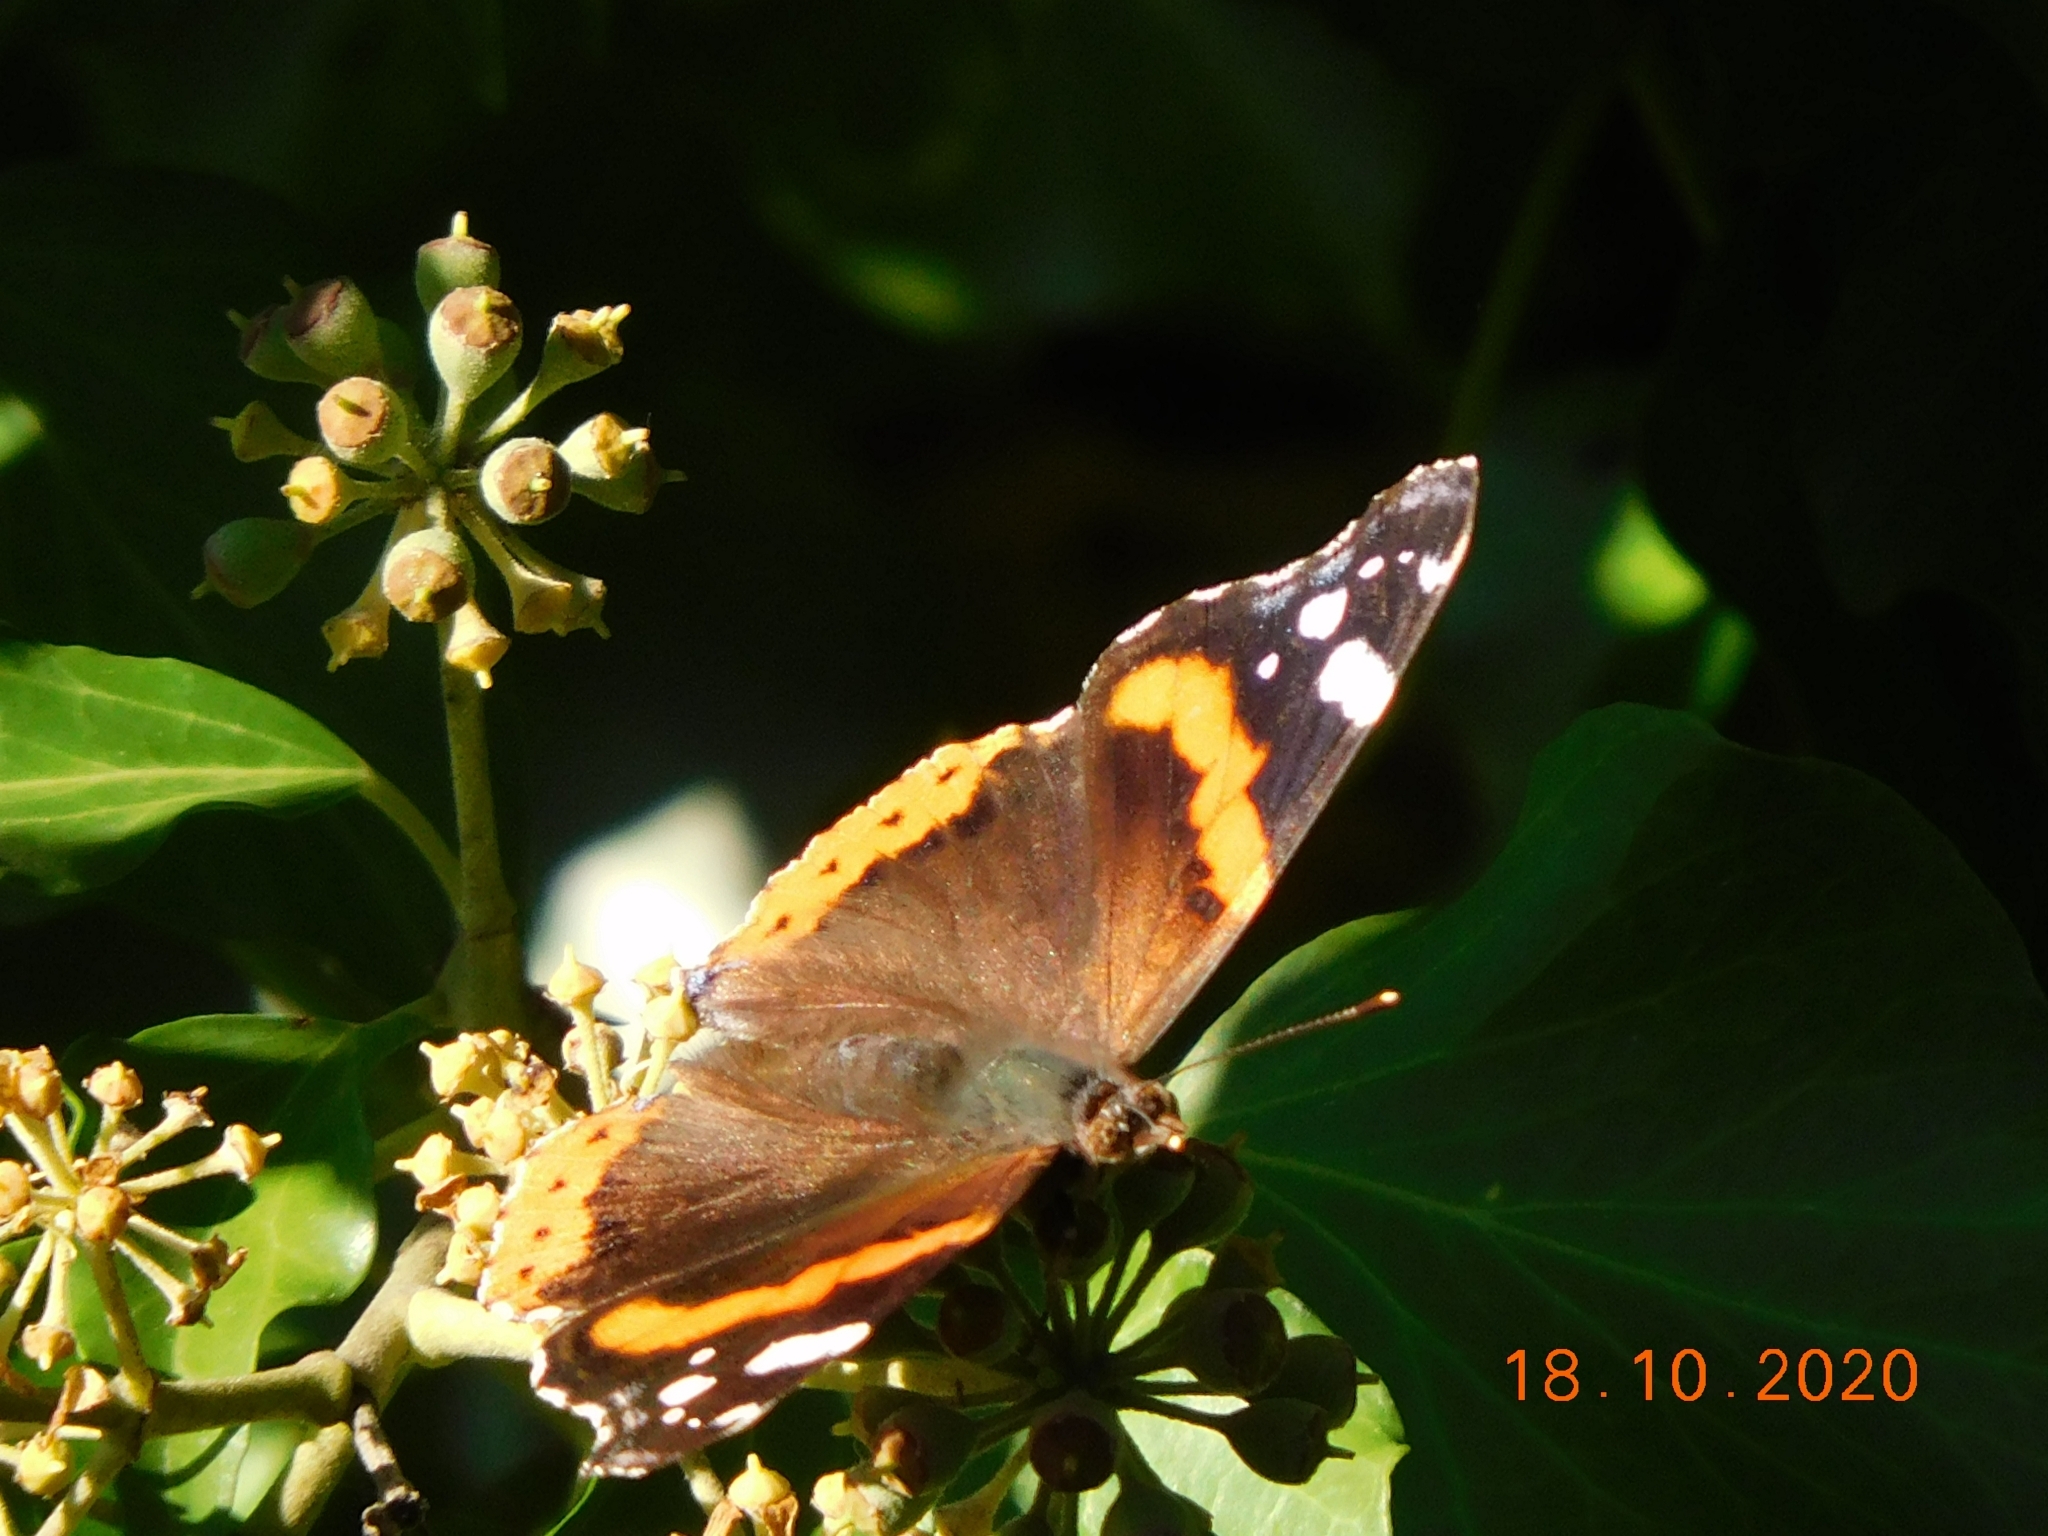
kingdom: Animalia
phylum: Arthropoda
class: Insecta
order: Lepidoptera
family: Nymphalidae
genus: Vanessa
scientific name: Vanessa atalanta
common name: Red admiral
